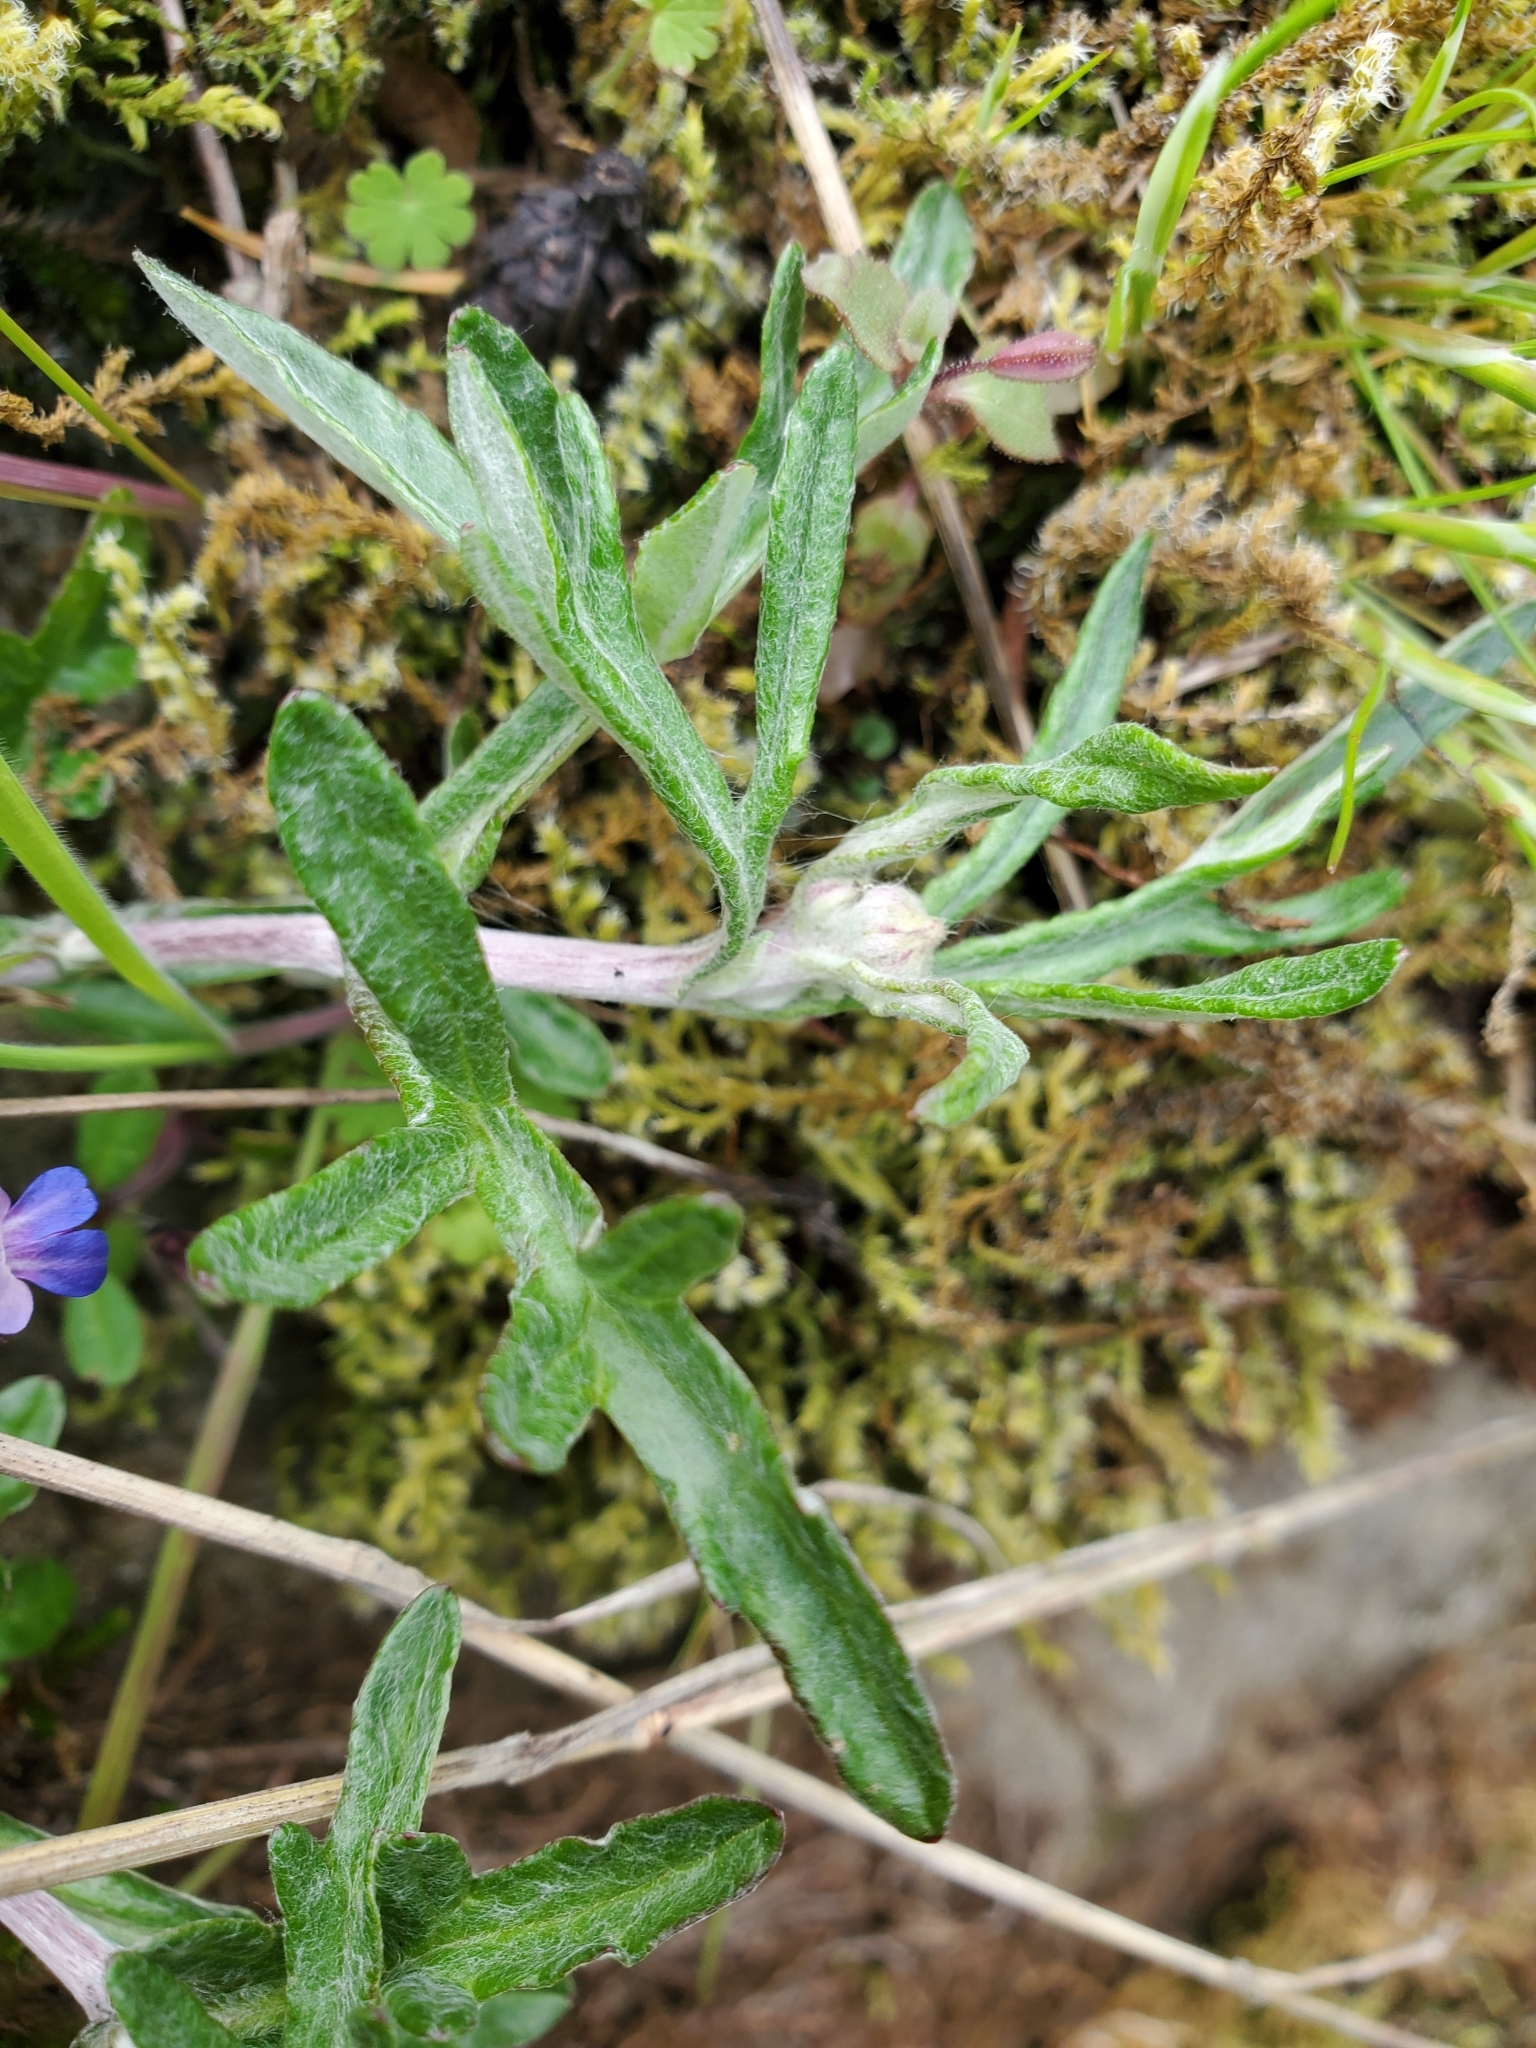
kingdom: Plantae
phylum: Tracheophyta
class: Magnoliopsida
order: Asterales
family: Asteraceae
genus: Eriophyllum
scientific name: Eriophyllum lanatum
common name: Common woolly-sunflower
